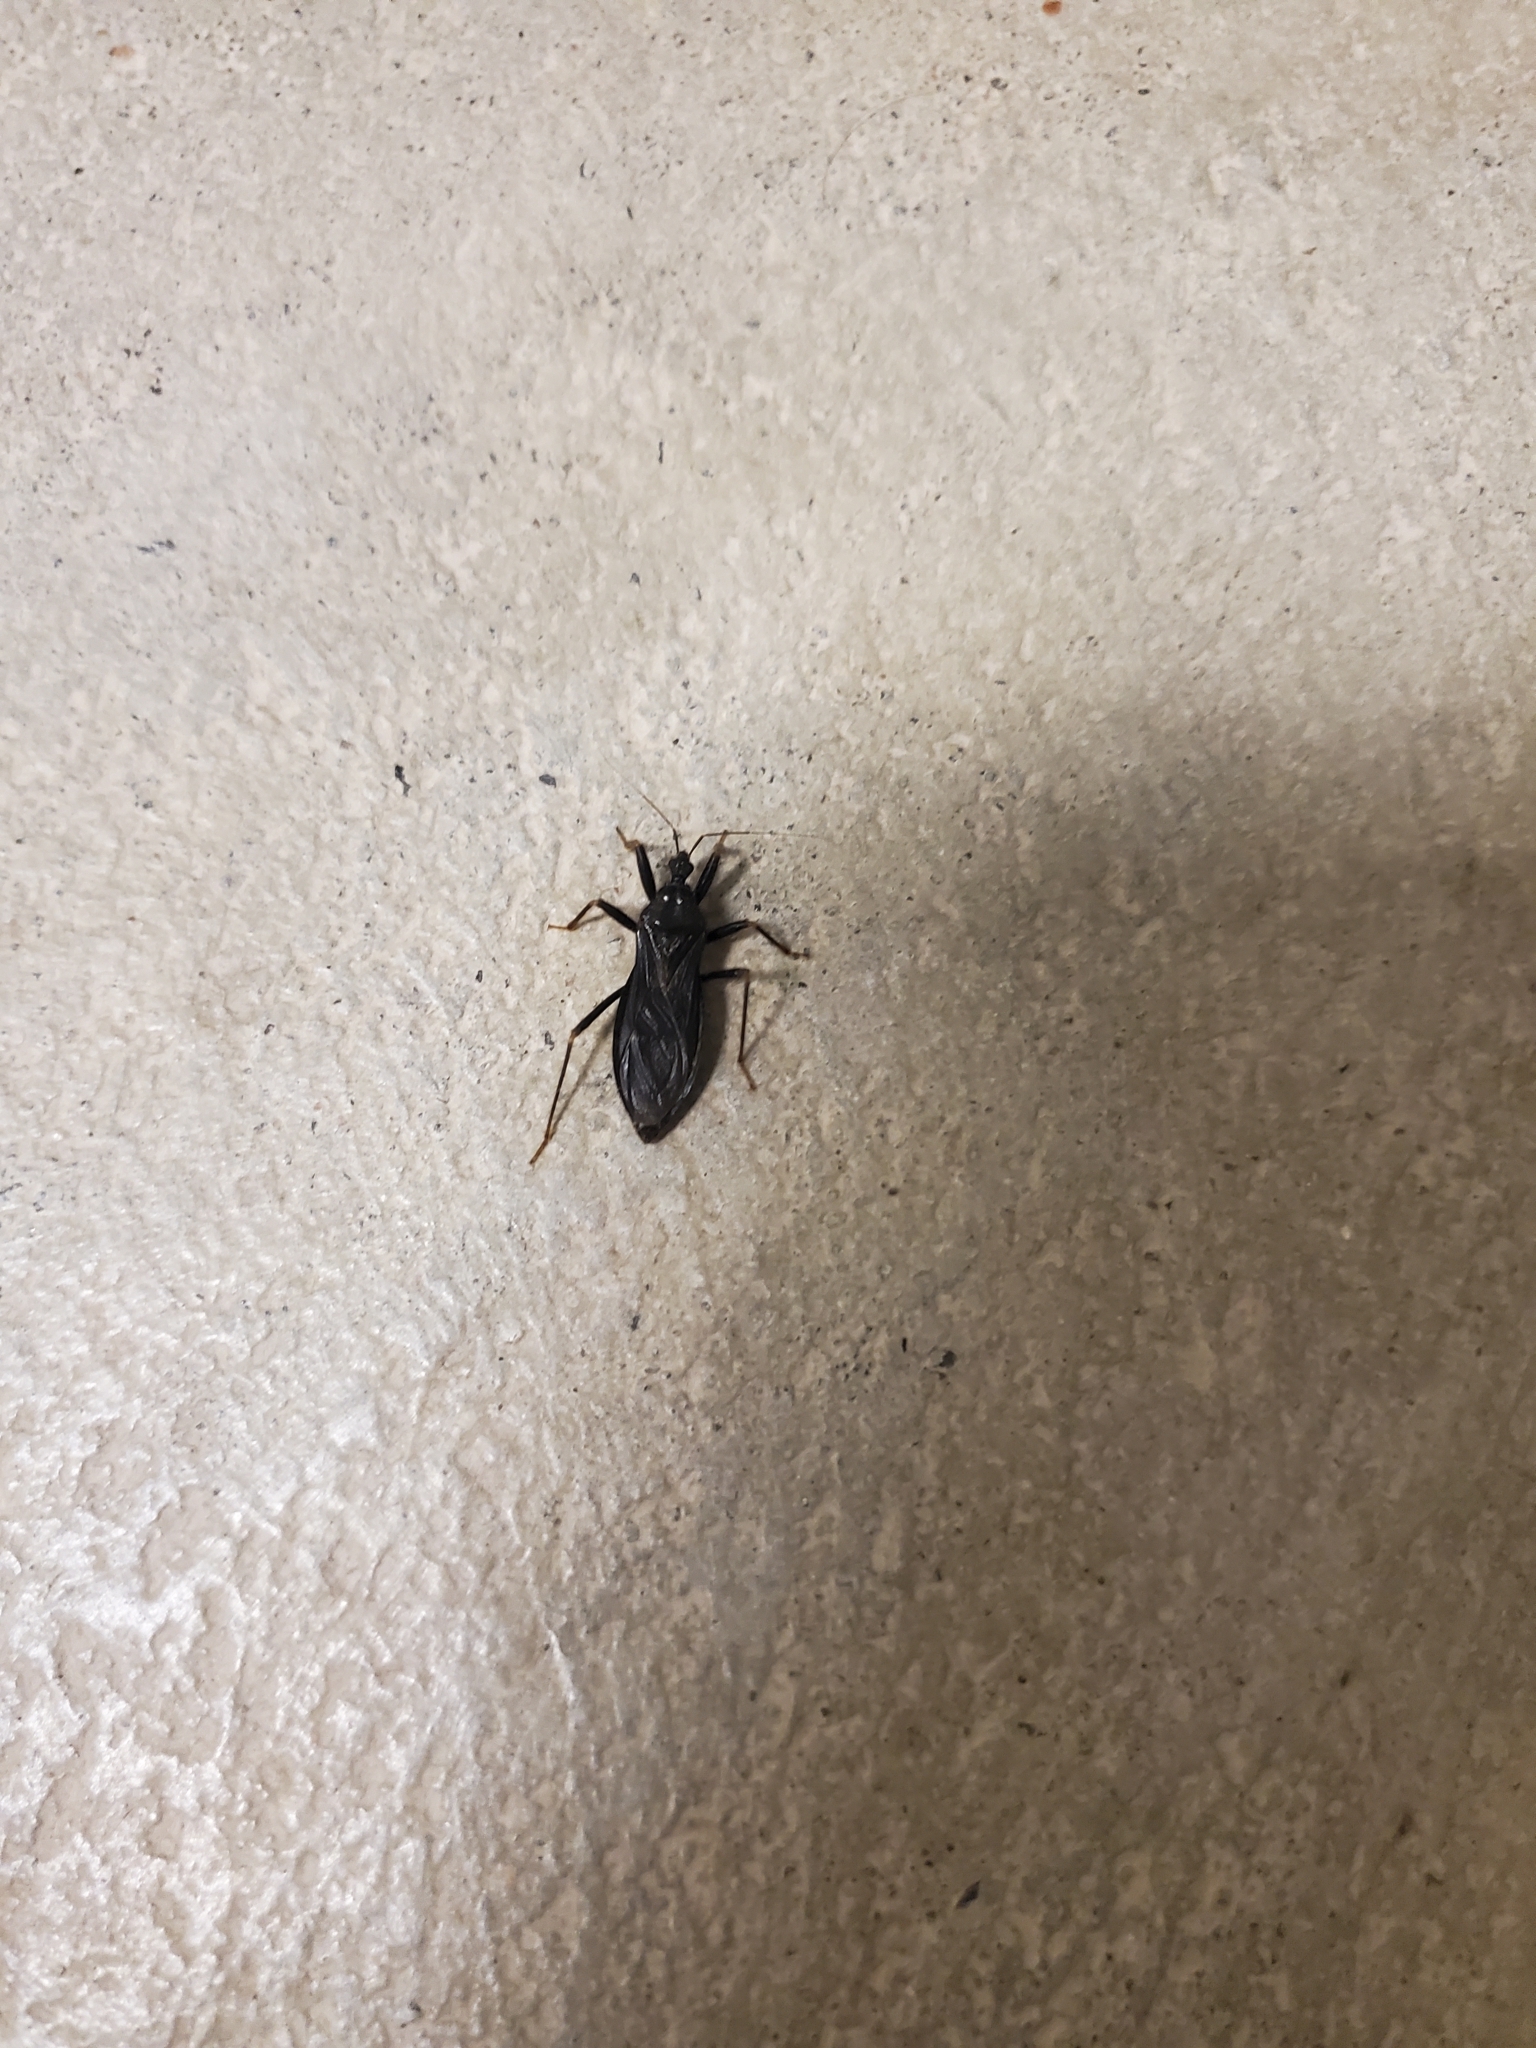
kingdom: Animalia
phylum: Arthropoda
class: Insecta
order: Hemiptera
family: Reduviidae
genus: Reduvius
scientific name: Reduvius personatus
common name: Masked hunter
